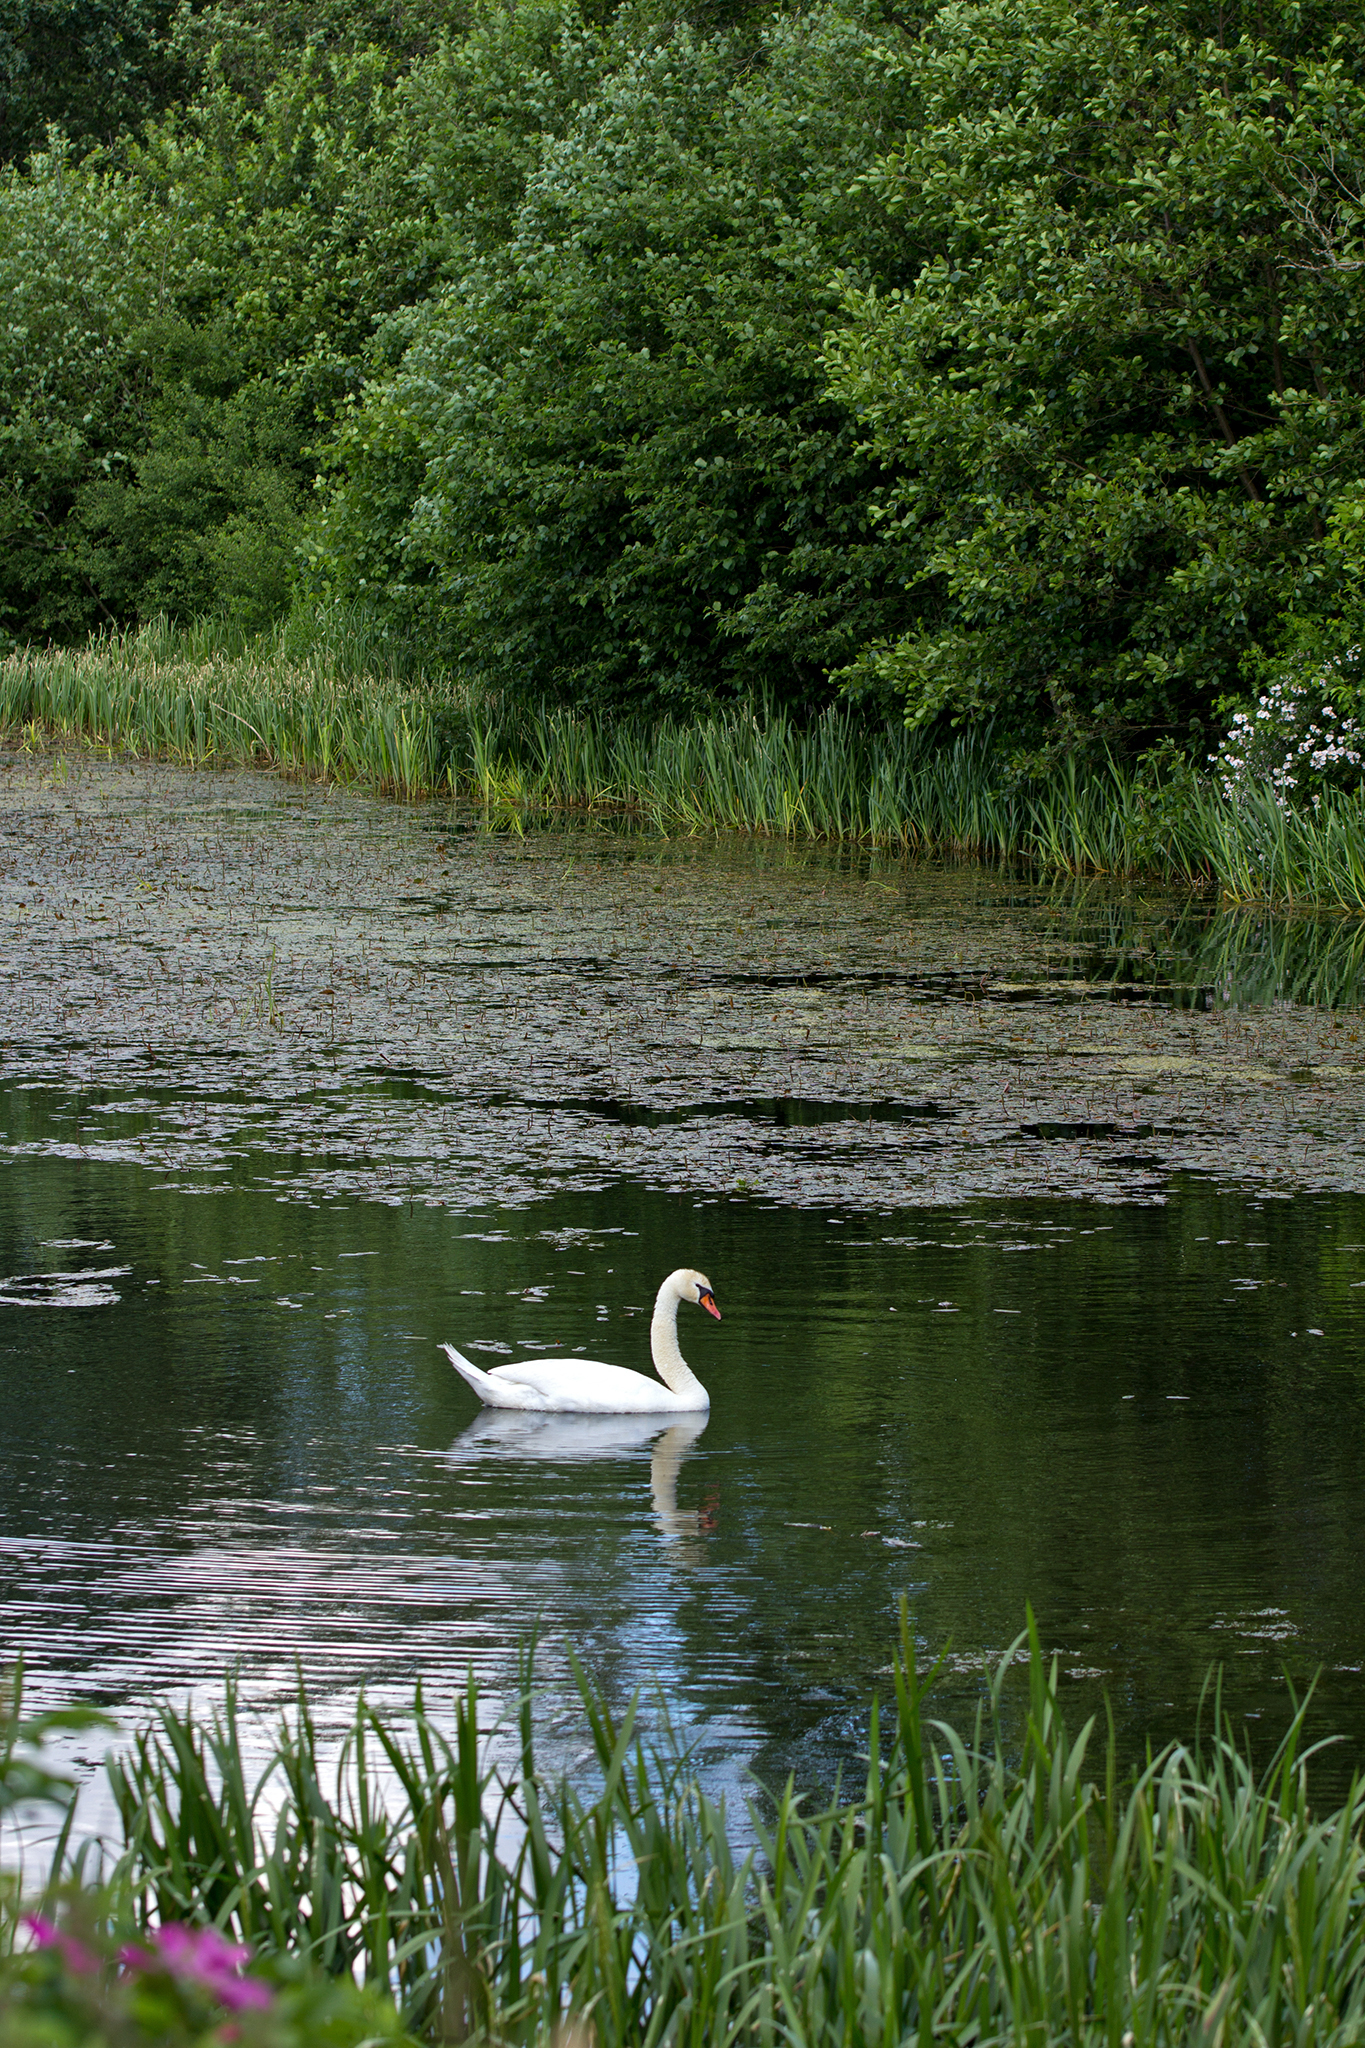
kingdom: Animalia
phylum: Chordata
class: Aves
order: Anseriformes
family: Anatidae
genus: Cygnus
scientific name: Cygnus olor
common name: Mute swan
